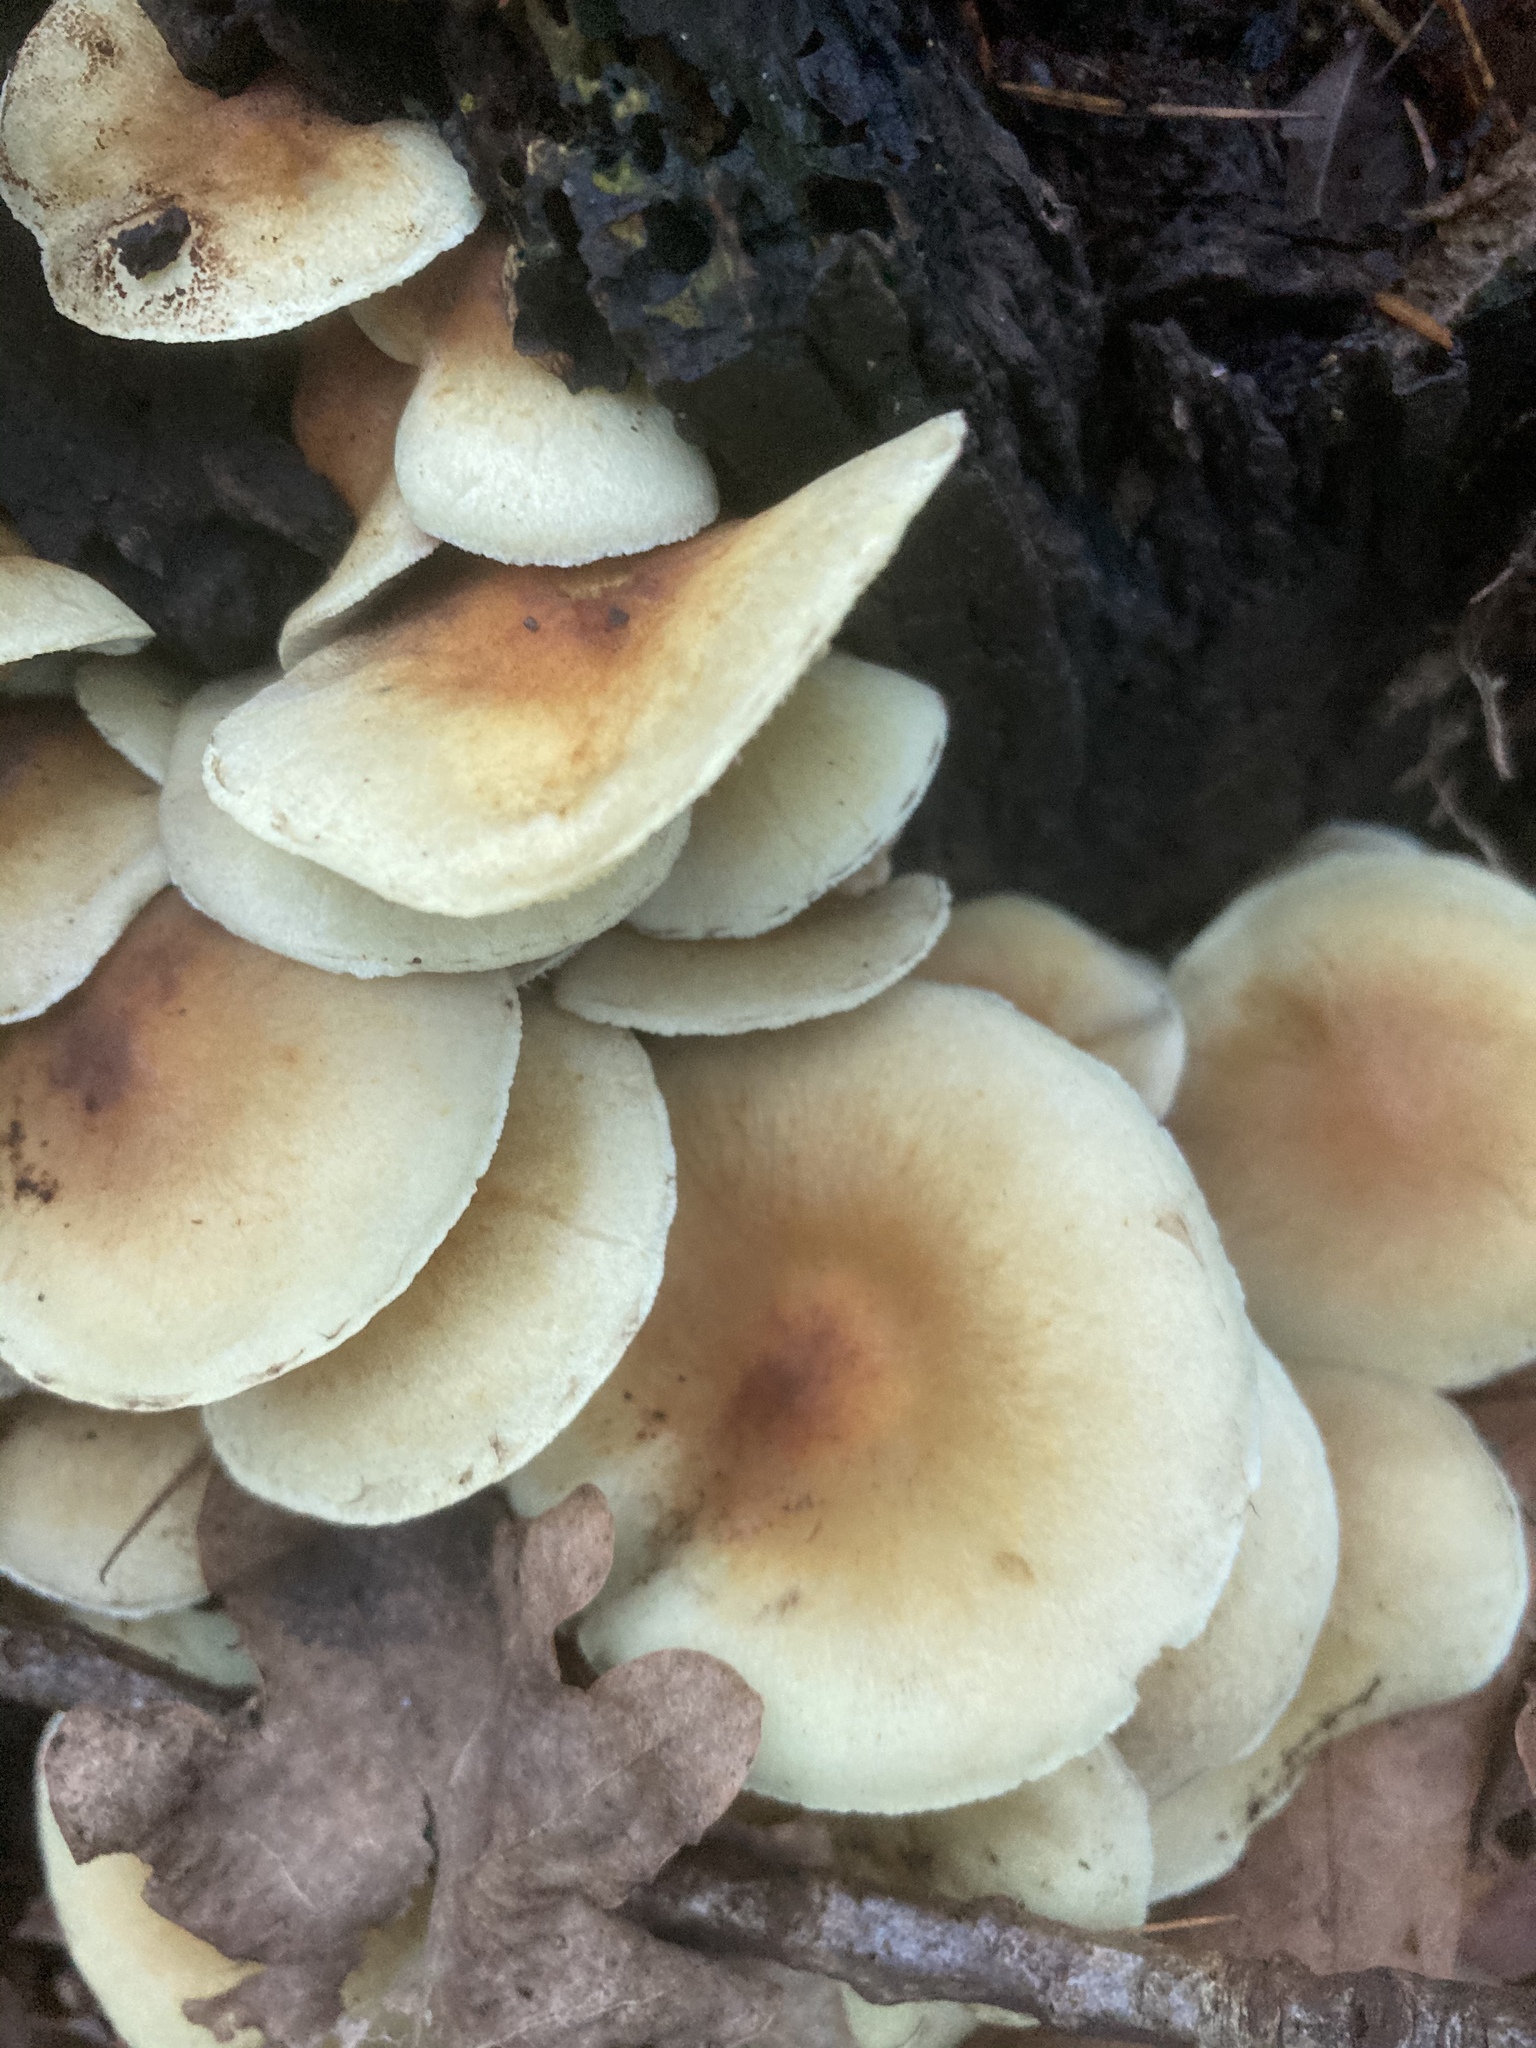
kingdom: Fungi
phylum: Basidiomycota
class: Agaricomycetes
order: Agaricales
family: Strophariaceae
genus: Hypholoma
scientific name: Hypholoma fasciculare
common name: Sulphur tuft
